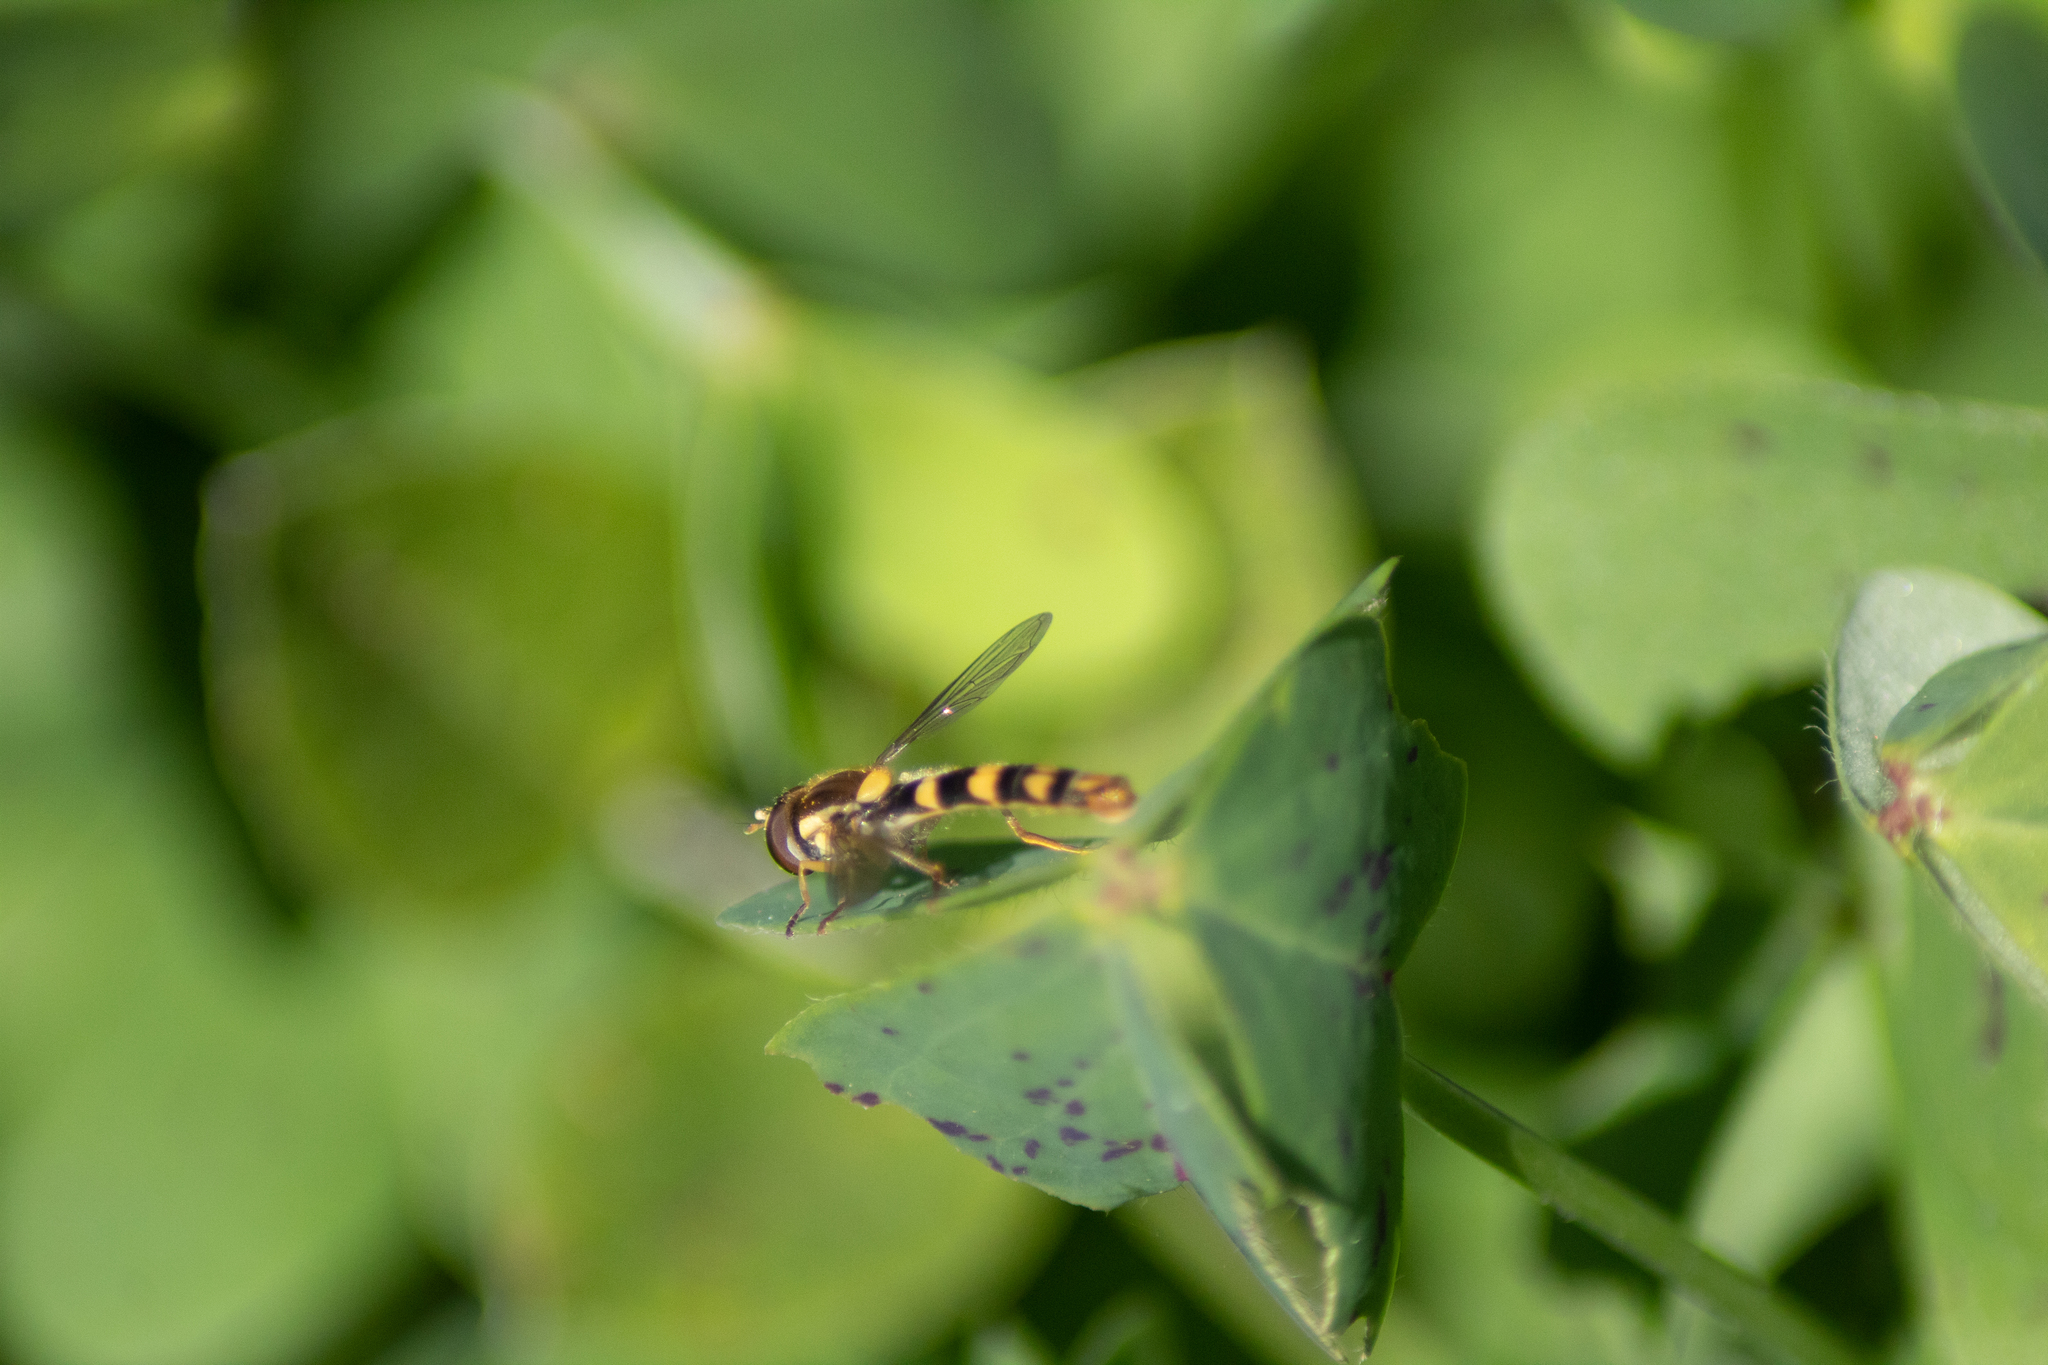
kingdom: Animalia
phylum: Arthropoda
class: Insecta
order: Diptera
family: Syrphidae
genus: Sphaerophoria
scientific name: Sphaerophoria scripta
